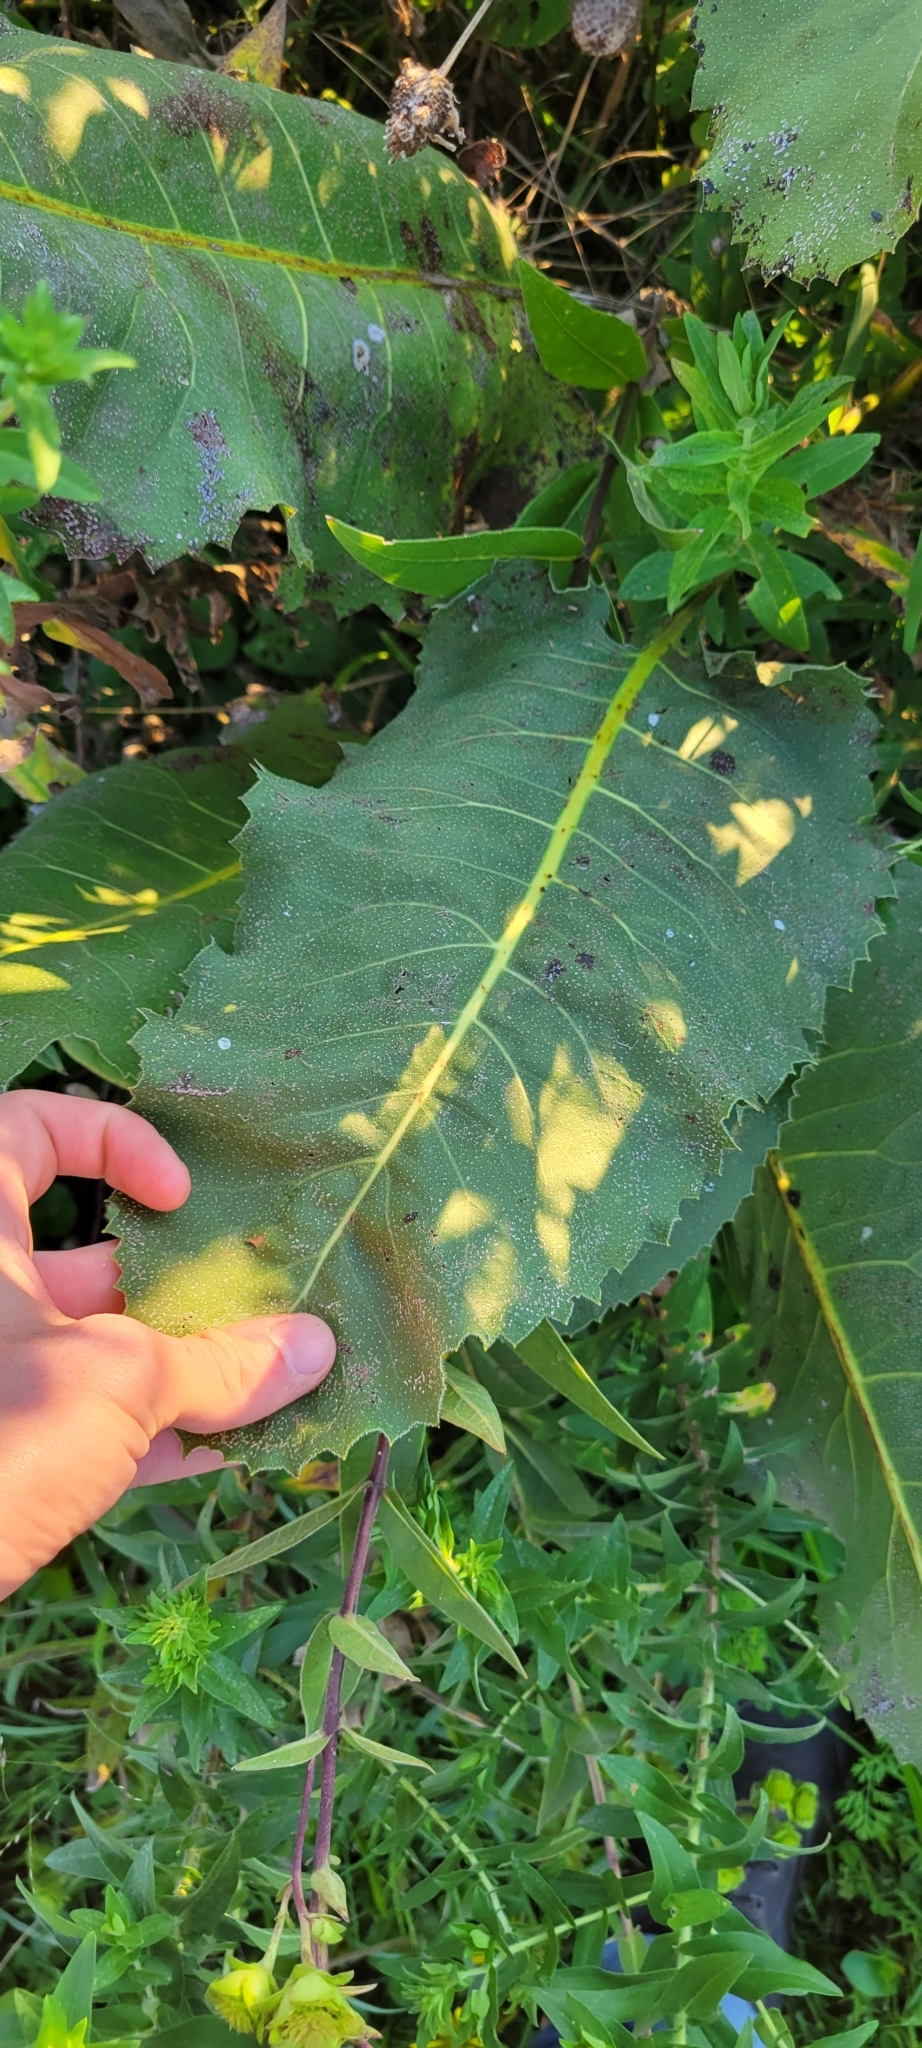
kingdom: Plantae
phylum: Tracheophyta
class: Magnoliopsida
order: Asterales
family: Asteraceae
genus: Silphium
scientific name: Silphium terebinthinaceum
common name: Basal-leaf rosinweed
